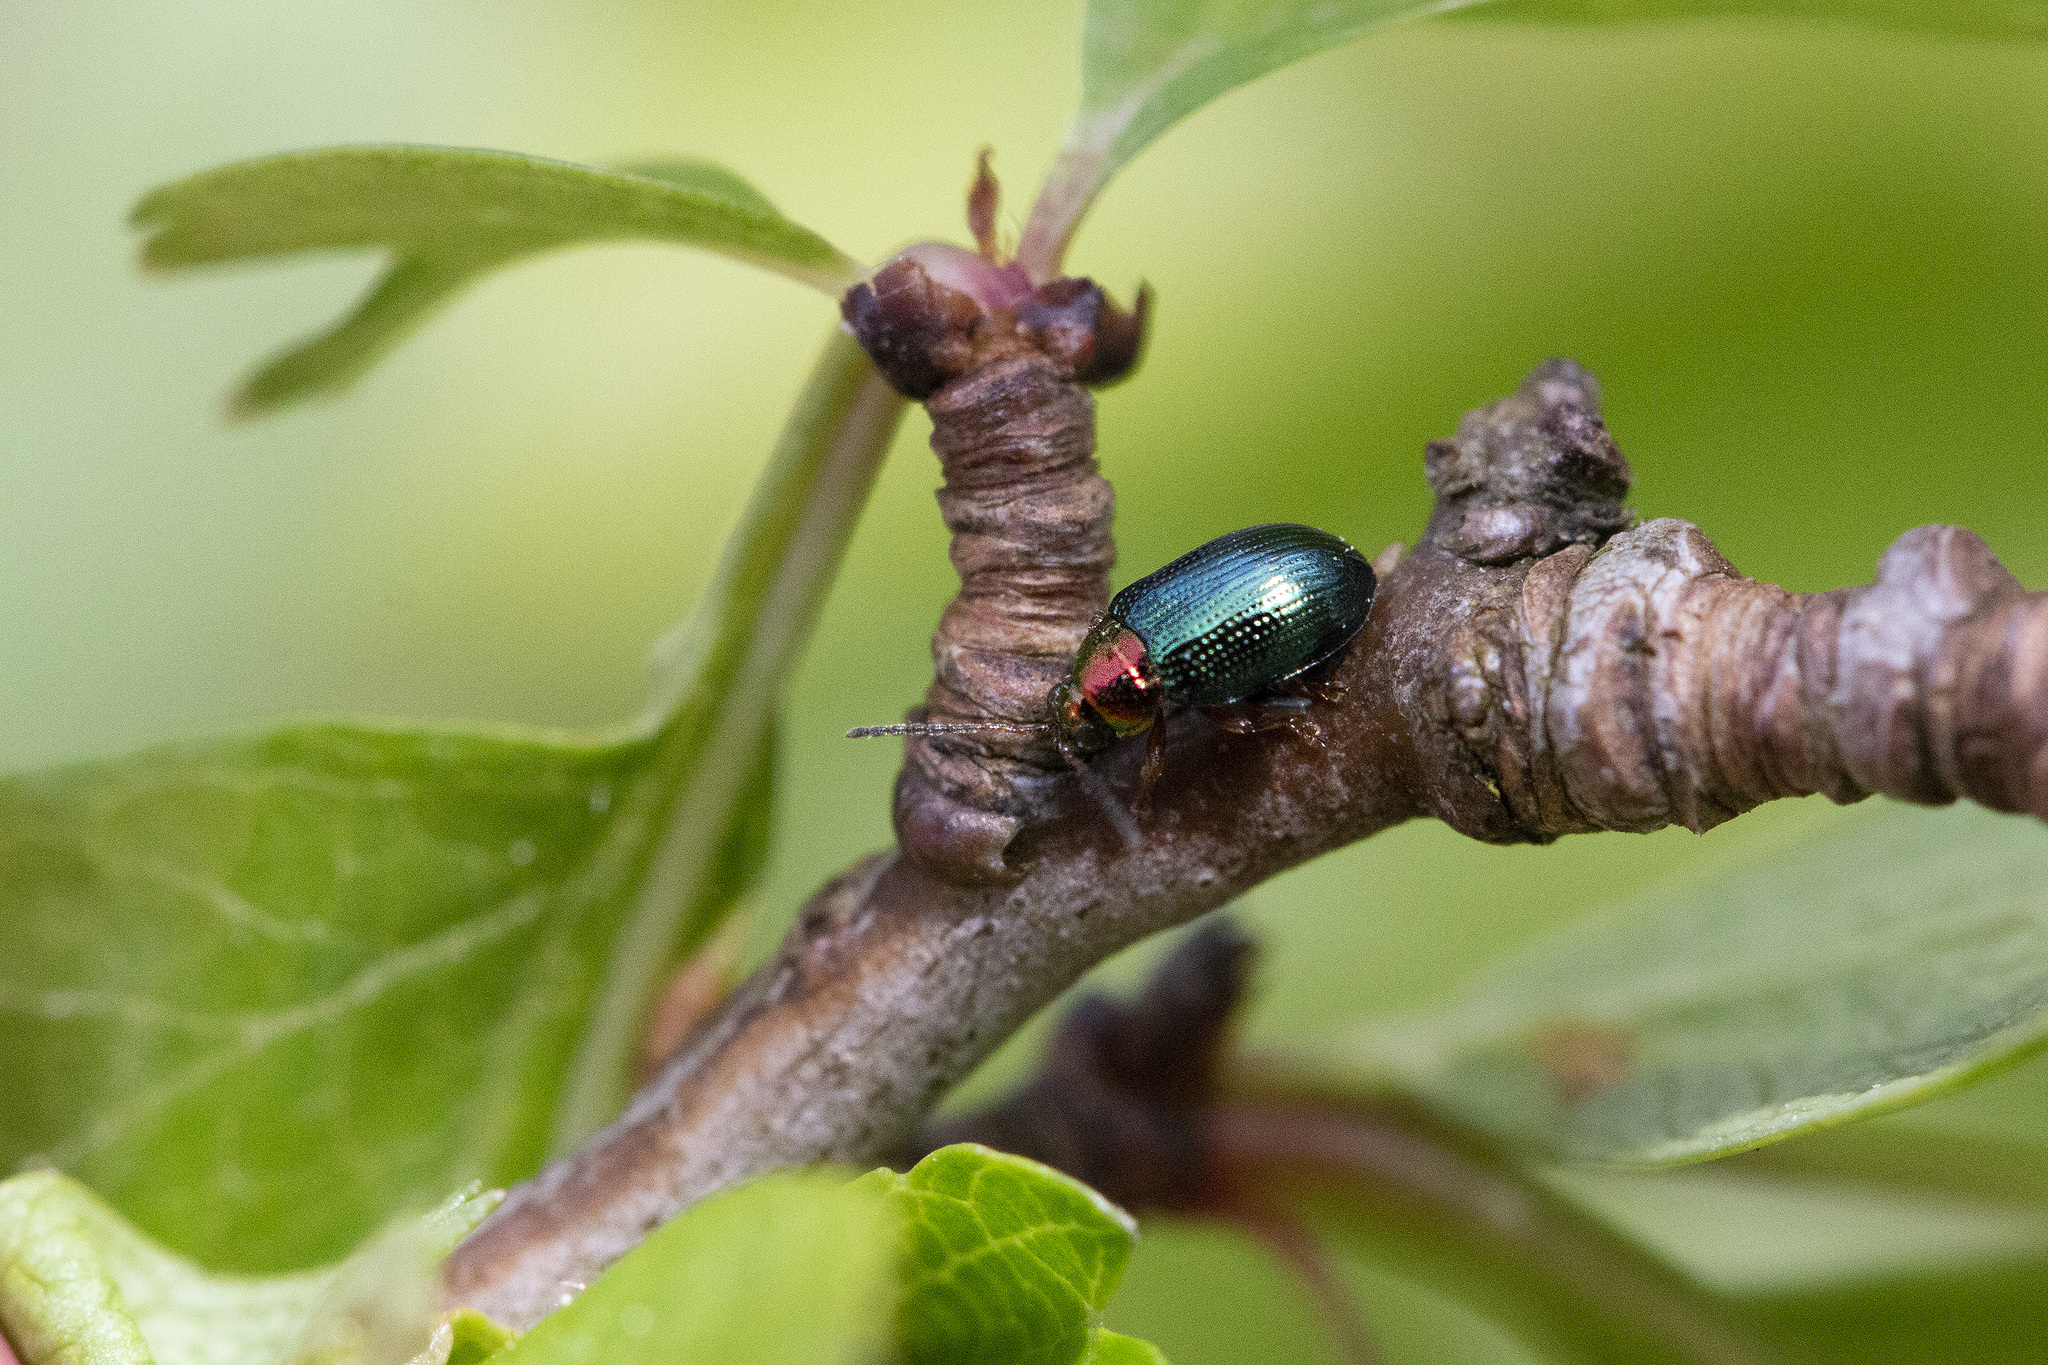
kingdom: Animalia
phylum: Arthropoda
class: Insecta
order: Coleoptera
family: Chrysomelidae
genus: Crepidodera
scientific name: Crepidodera aurata
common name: Willow flea beetle
